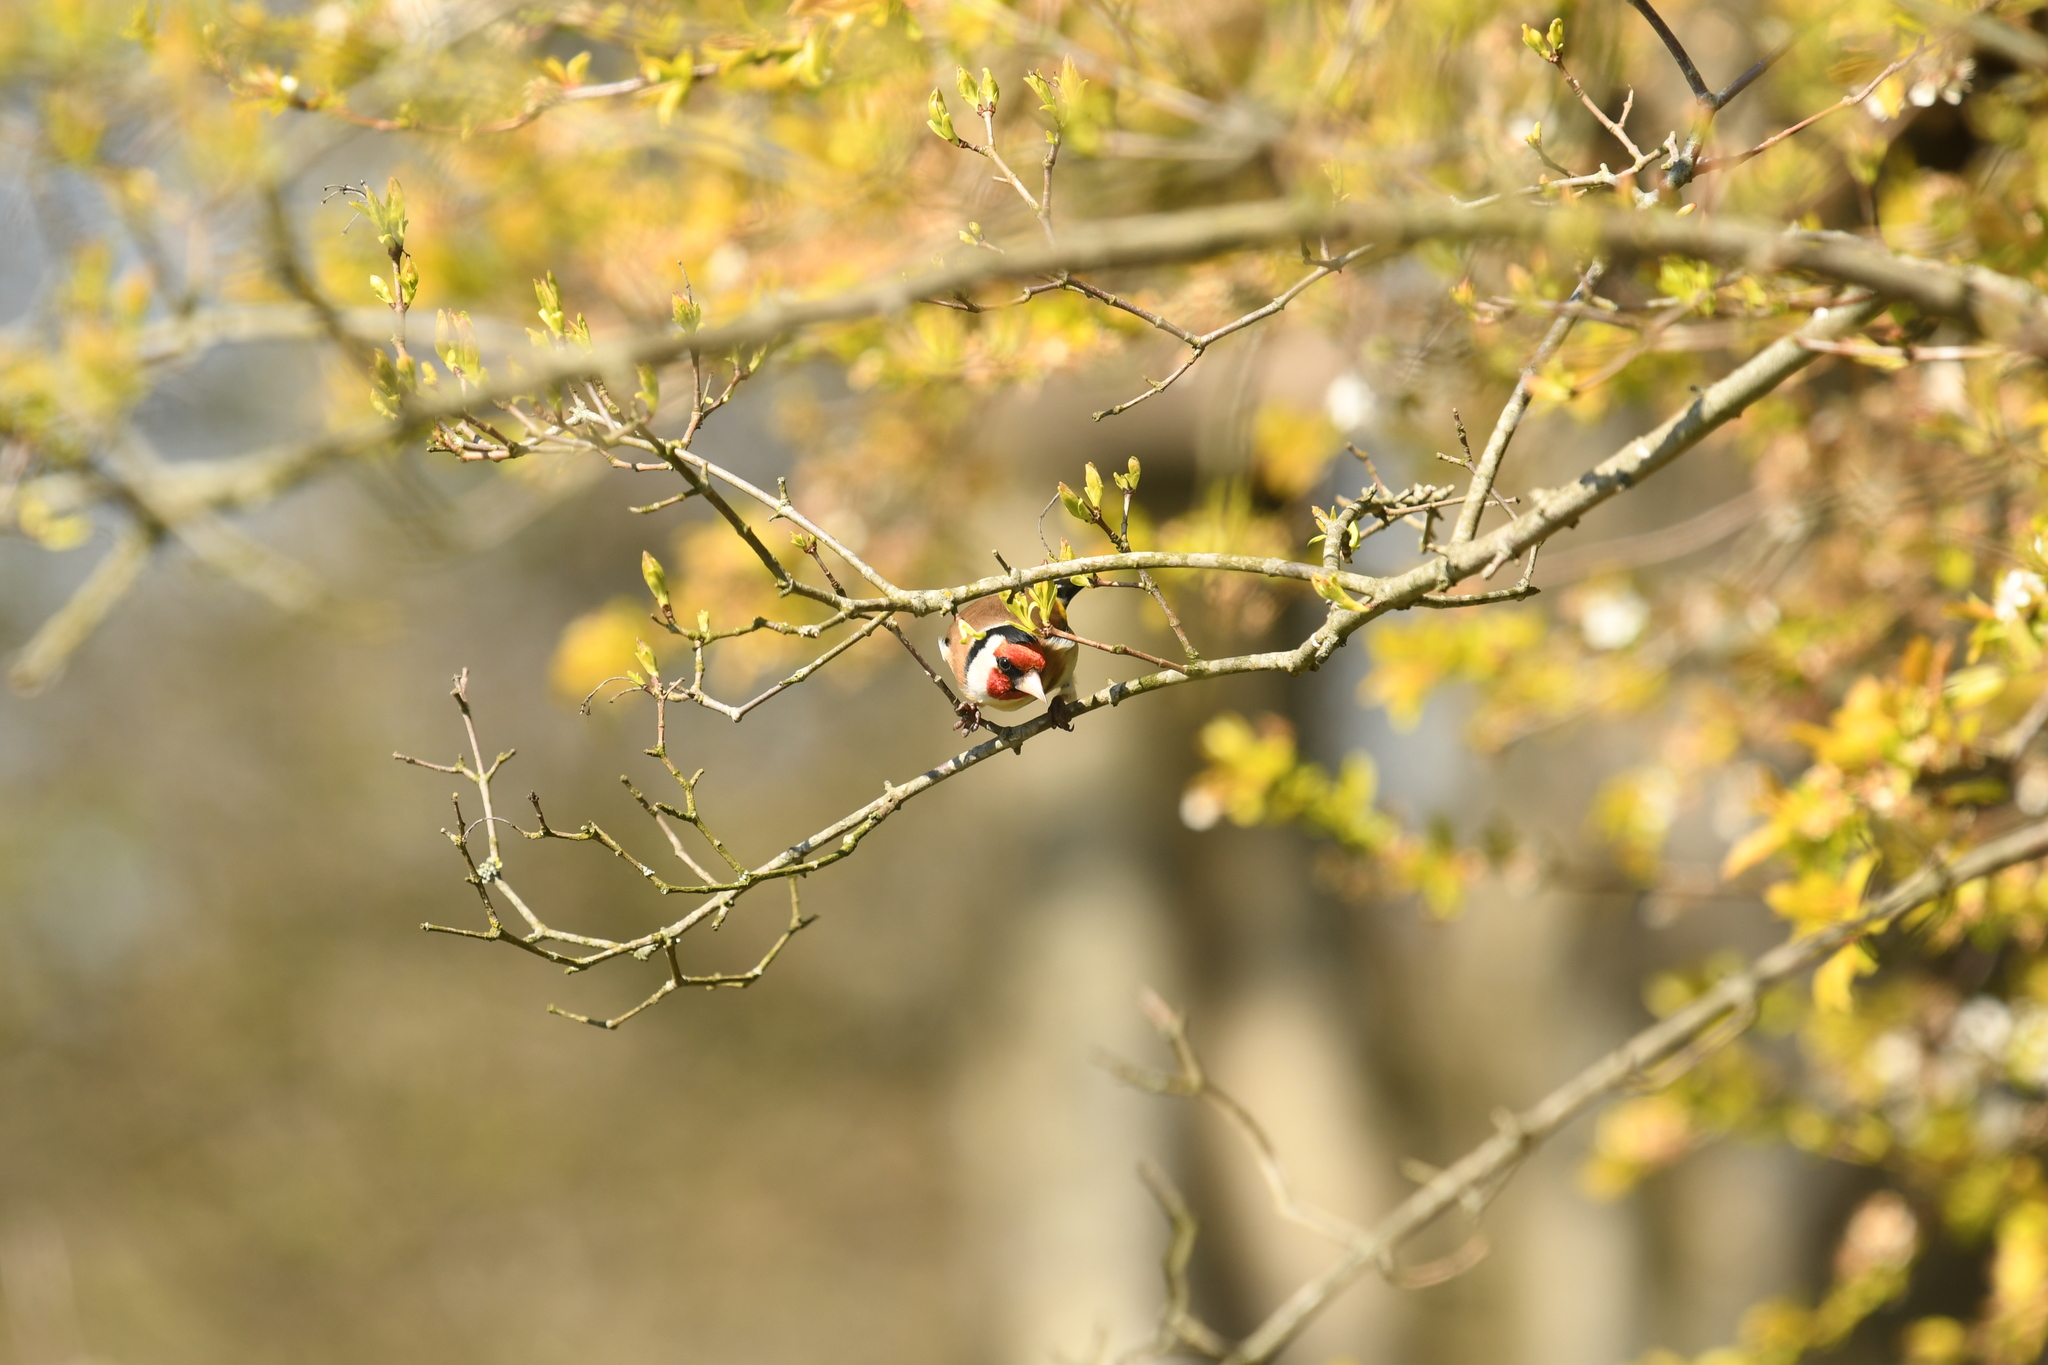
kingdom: Animalia
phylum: Chordata
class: Aves
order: Passeriformes
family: Fringillidae
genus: Carduelis
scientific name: Carduelis carduelis
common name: European goldfinch
